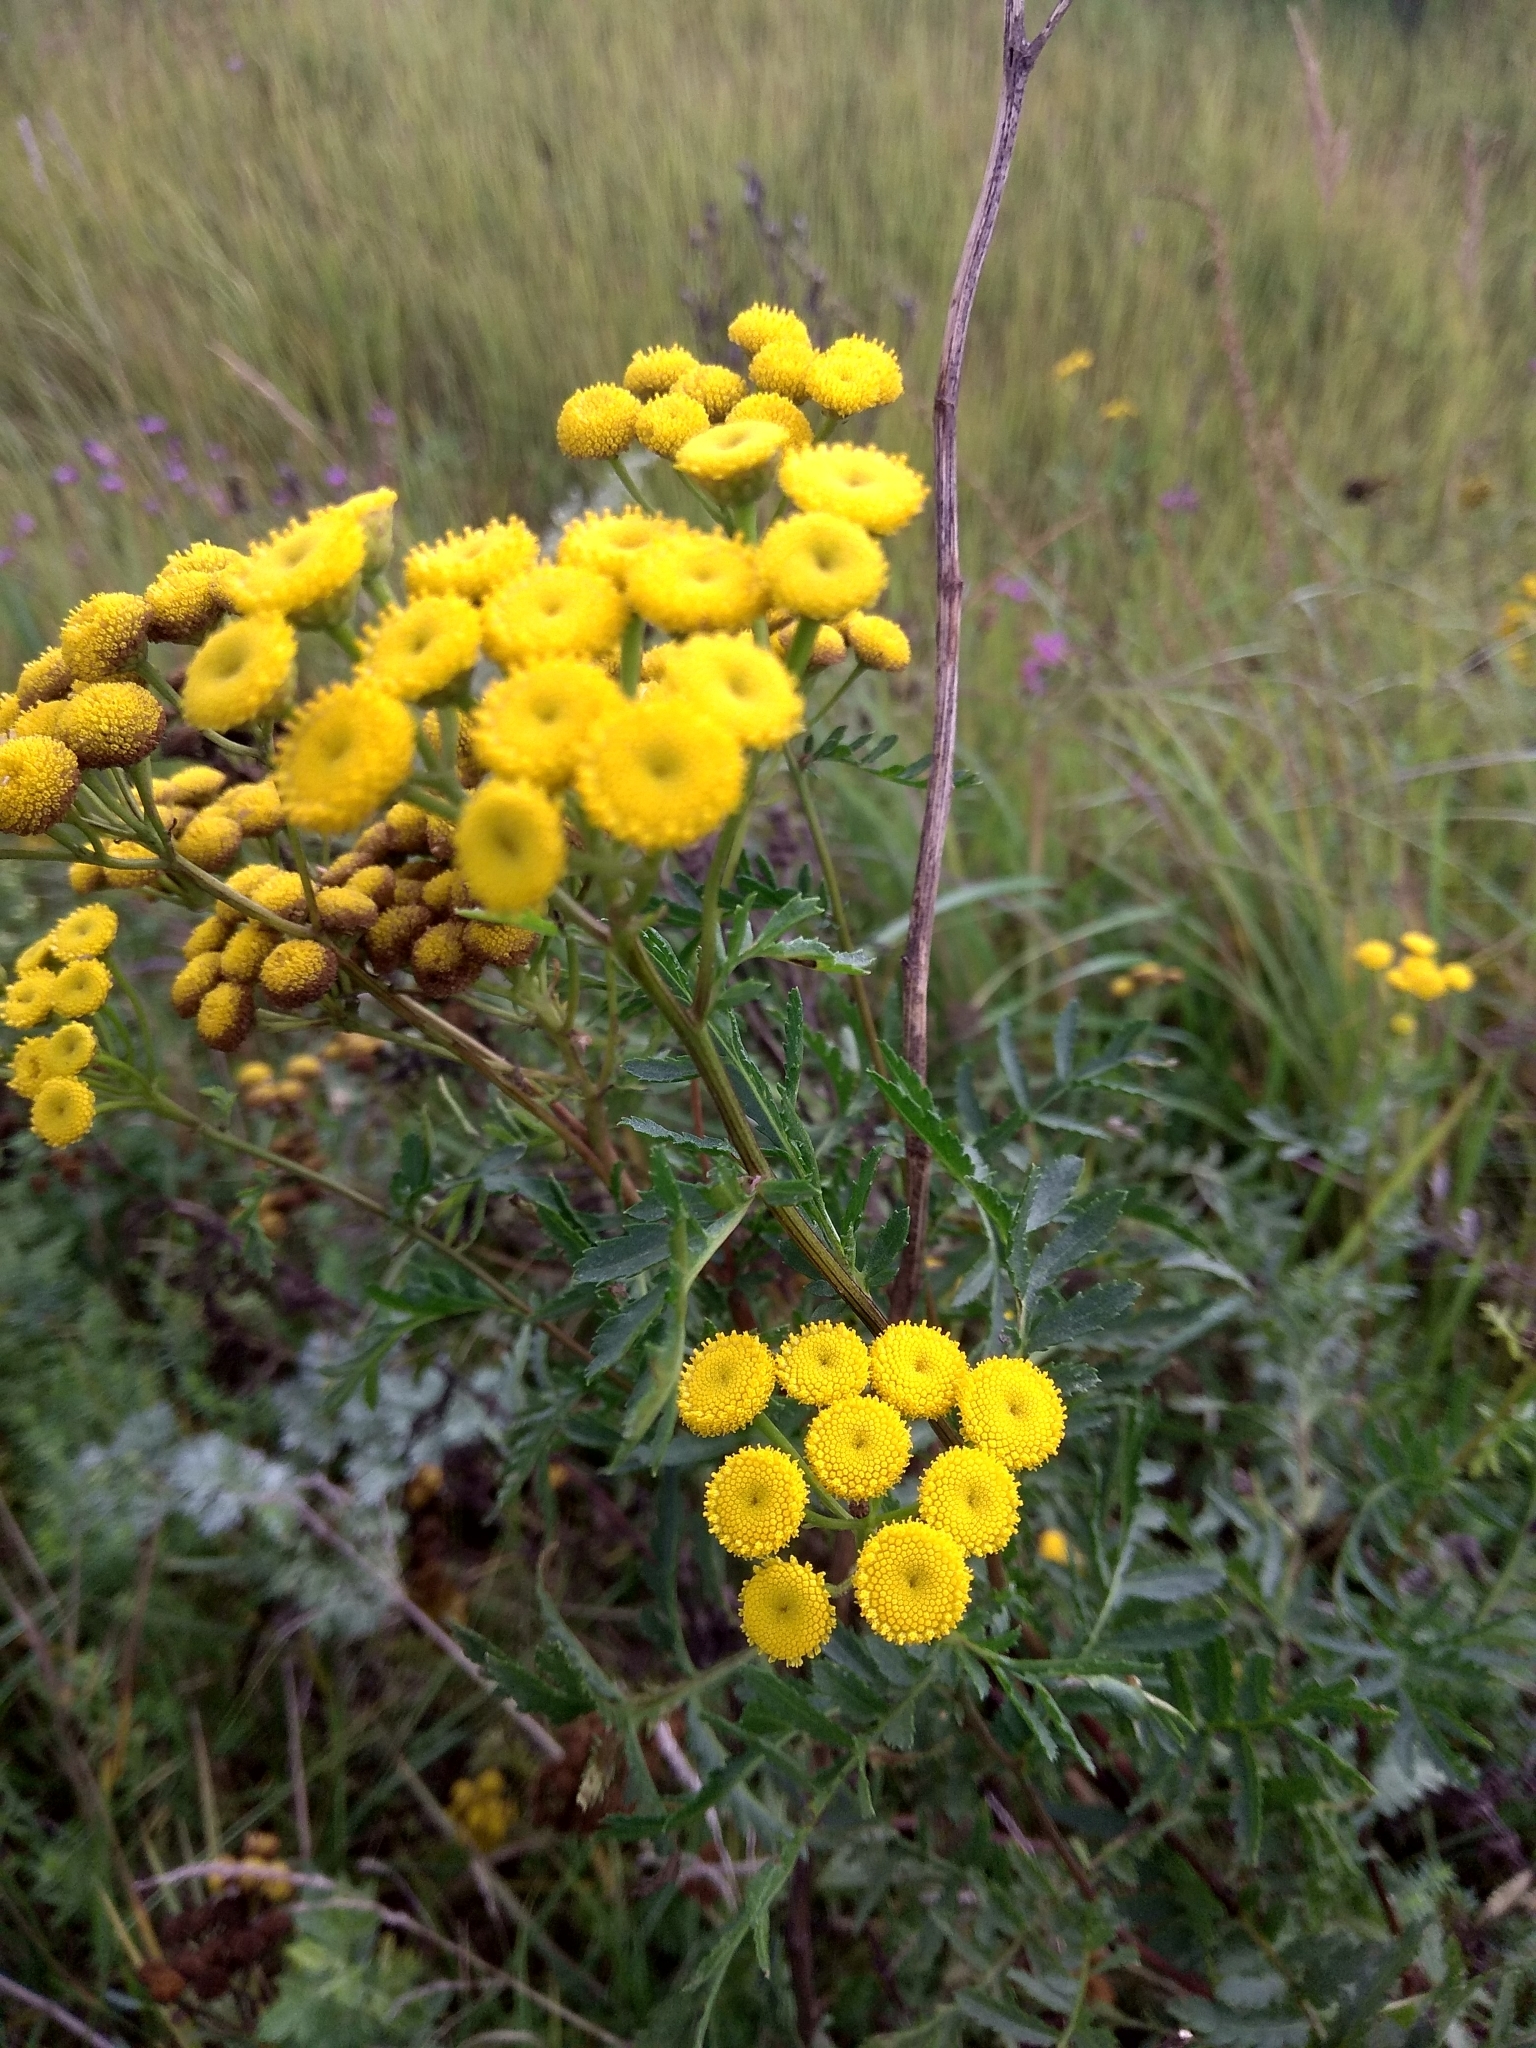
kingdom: Plantae
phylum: Tracheophyta
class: Magnoliopsida
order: Asterales
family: Asteraceae
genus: Tanacetum
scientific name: Tanacetum vulgare
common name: Common tansy
